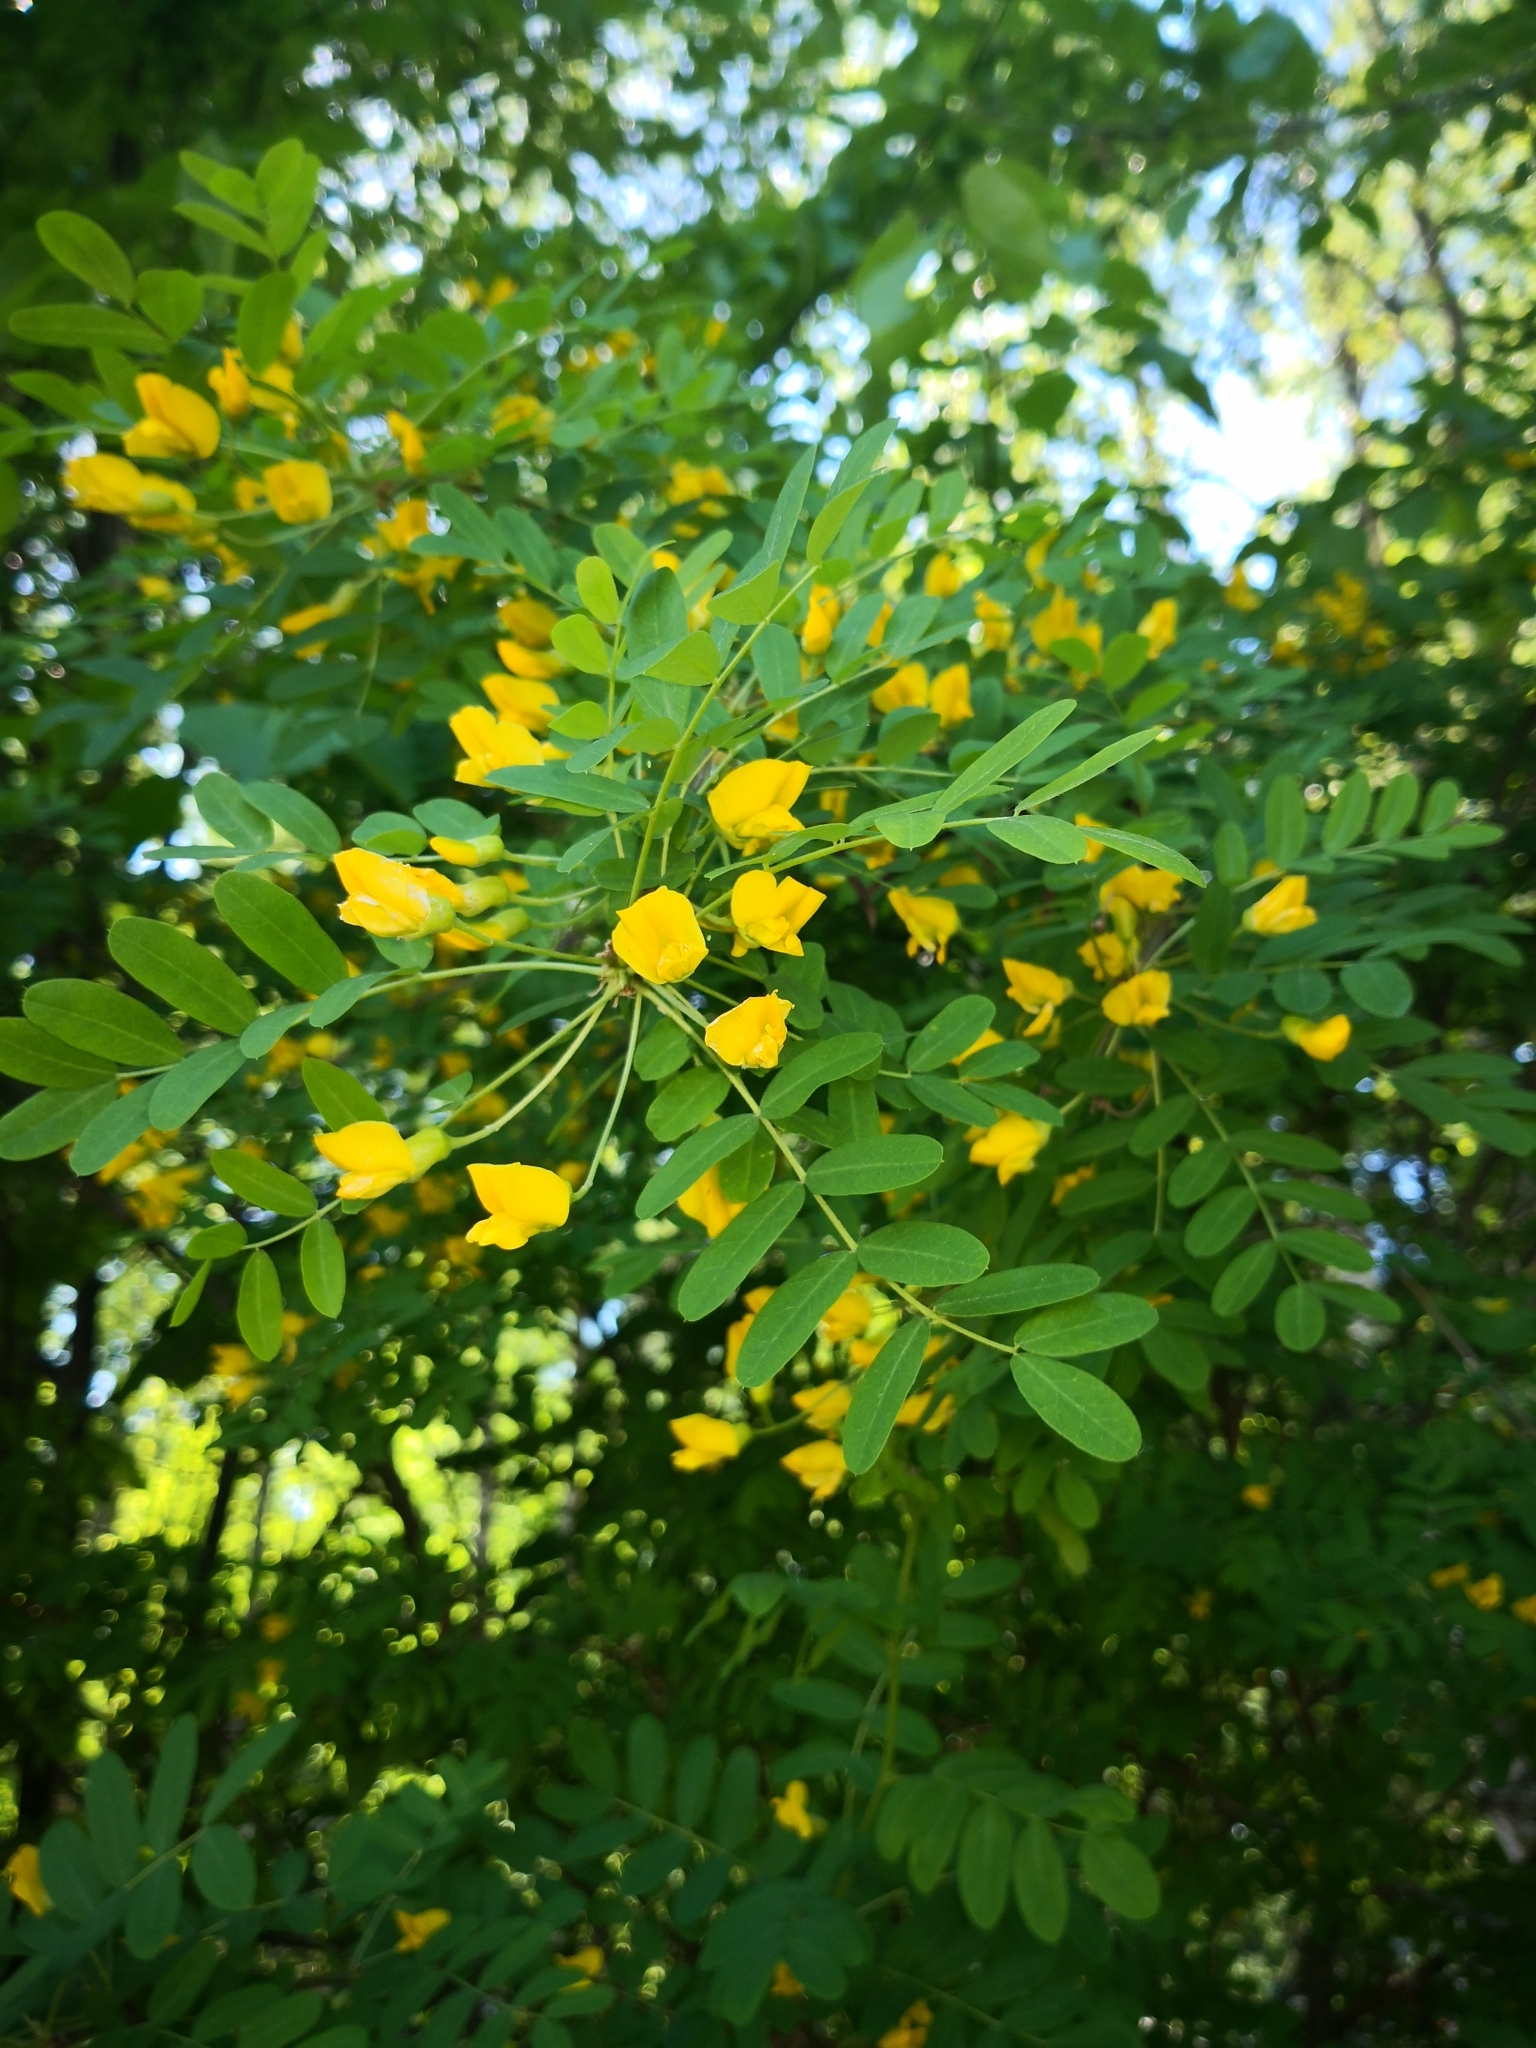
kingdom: Plantae
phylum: Tracheophyta
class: Magnoliopsida
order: Fabales
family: Fabaceae
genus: Caragana
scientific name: Caragana arborescens
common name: Siberian peashrub
